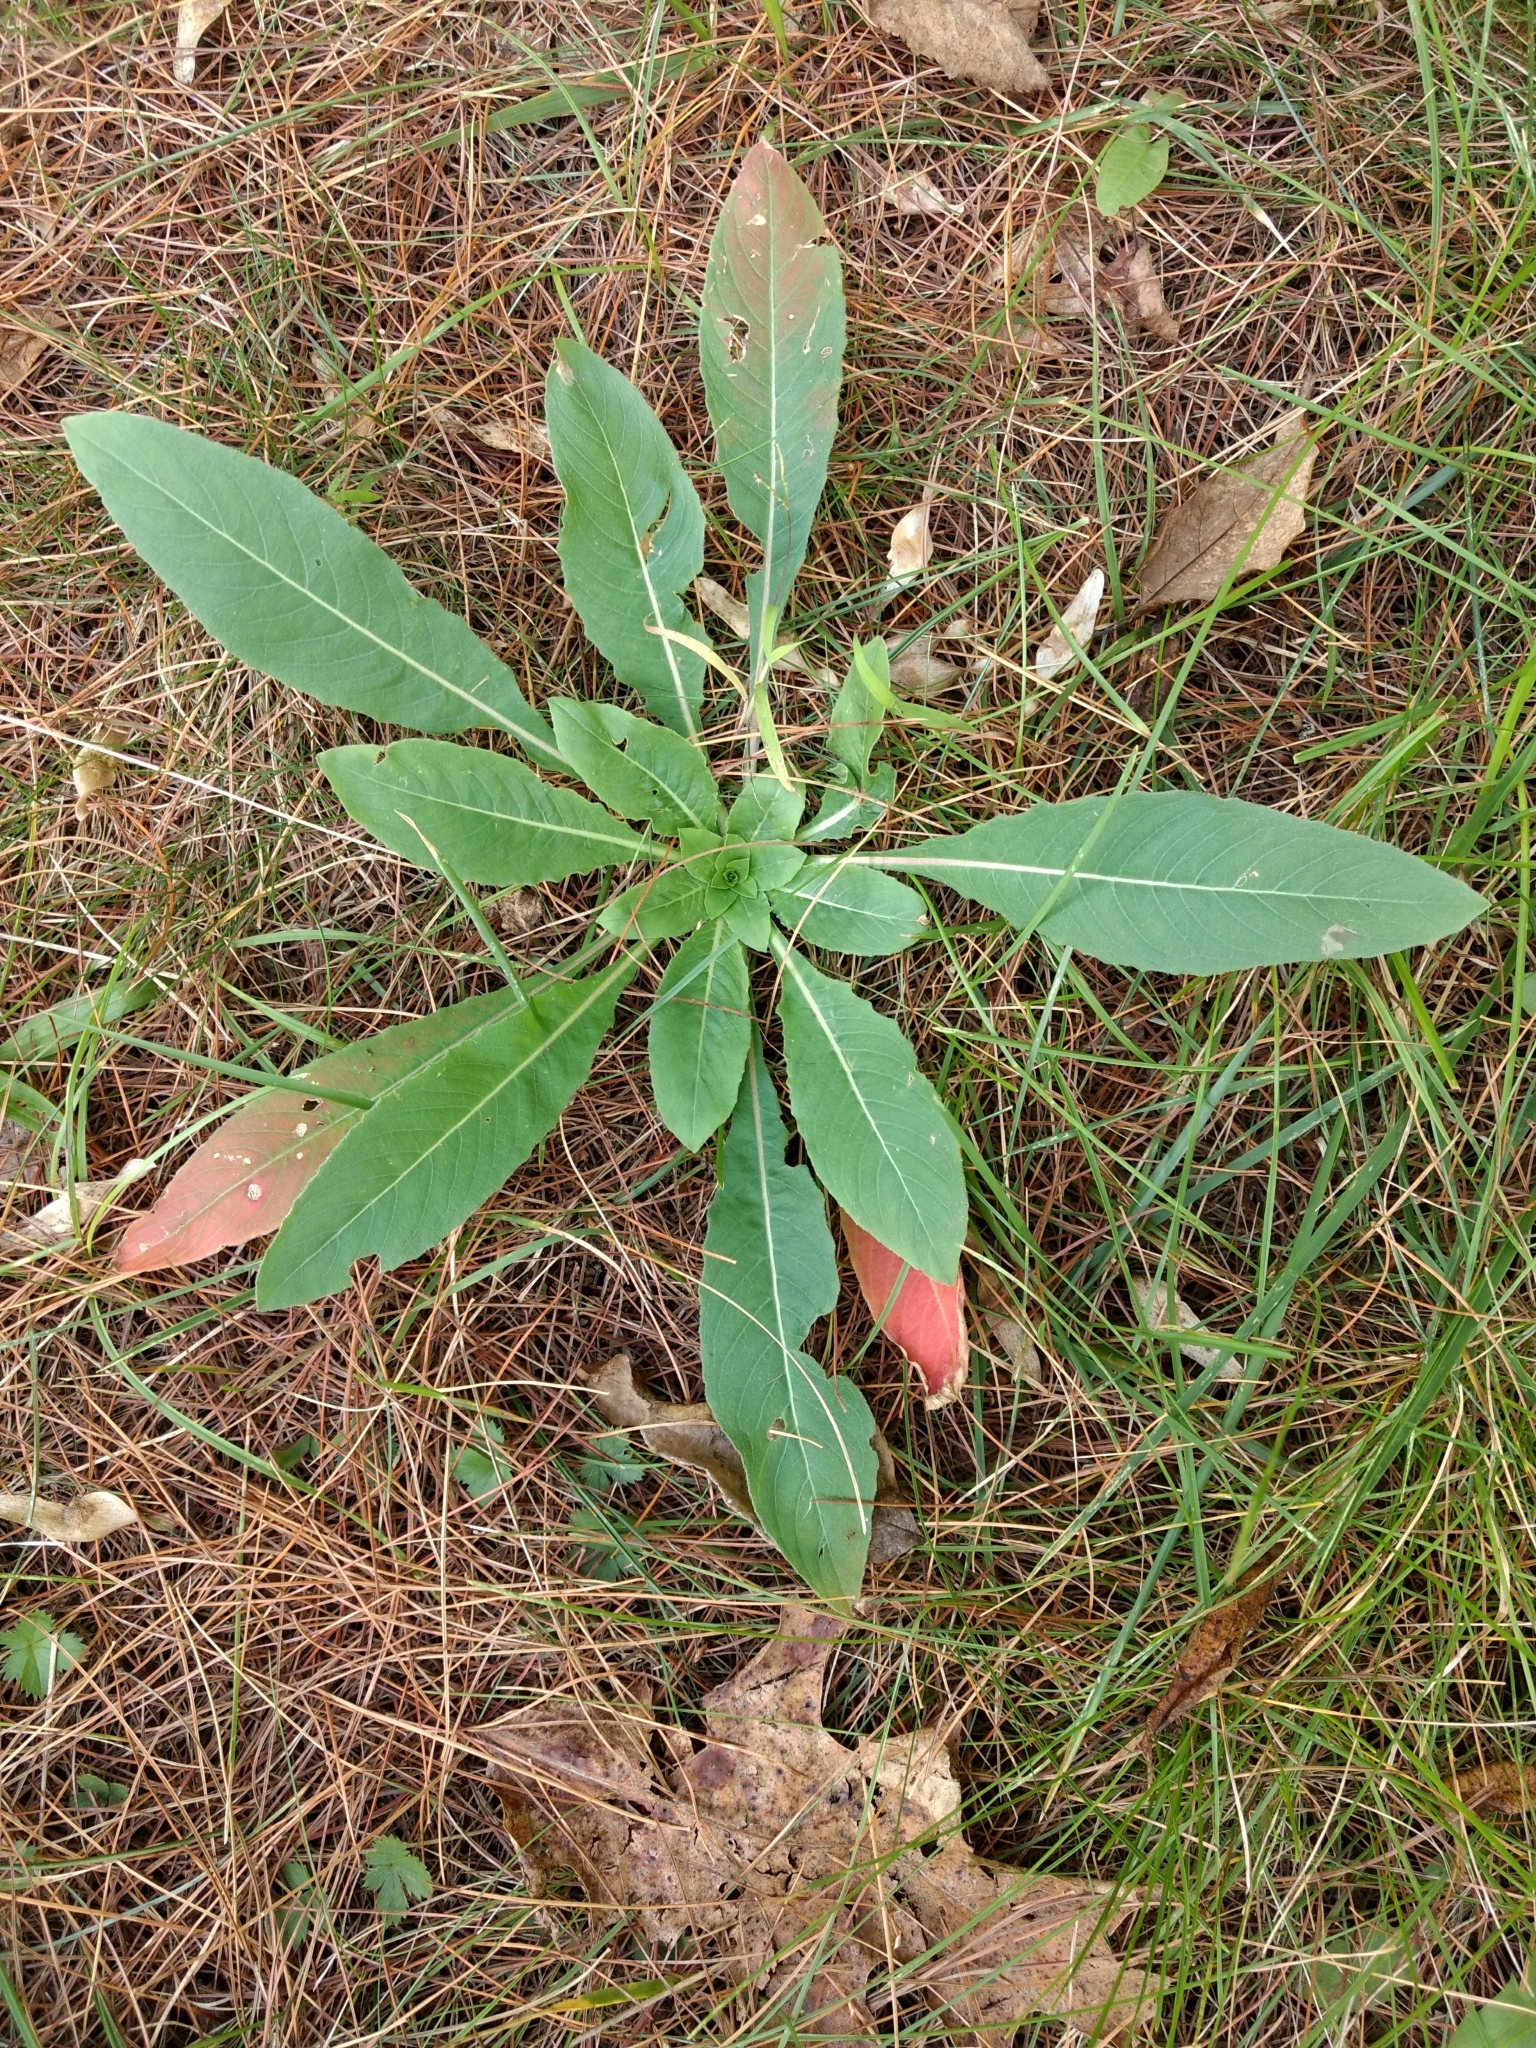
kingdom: Plantae
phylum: Tracheophyta
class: Magnoliopsida
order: Myrtales
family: Onagraceae
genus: Oenothera
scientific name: Oenothera biennis
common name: Common evening-primrose
